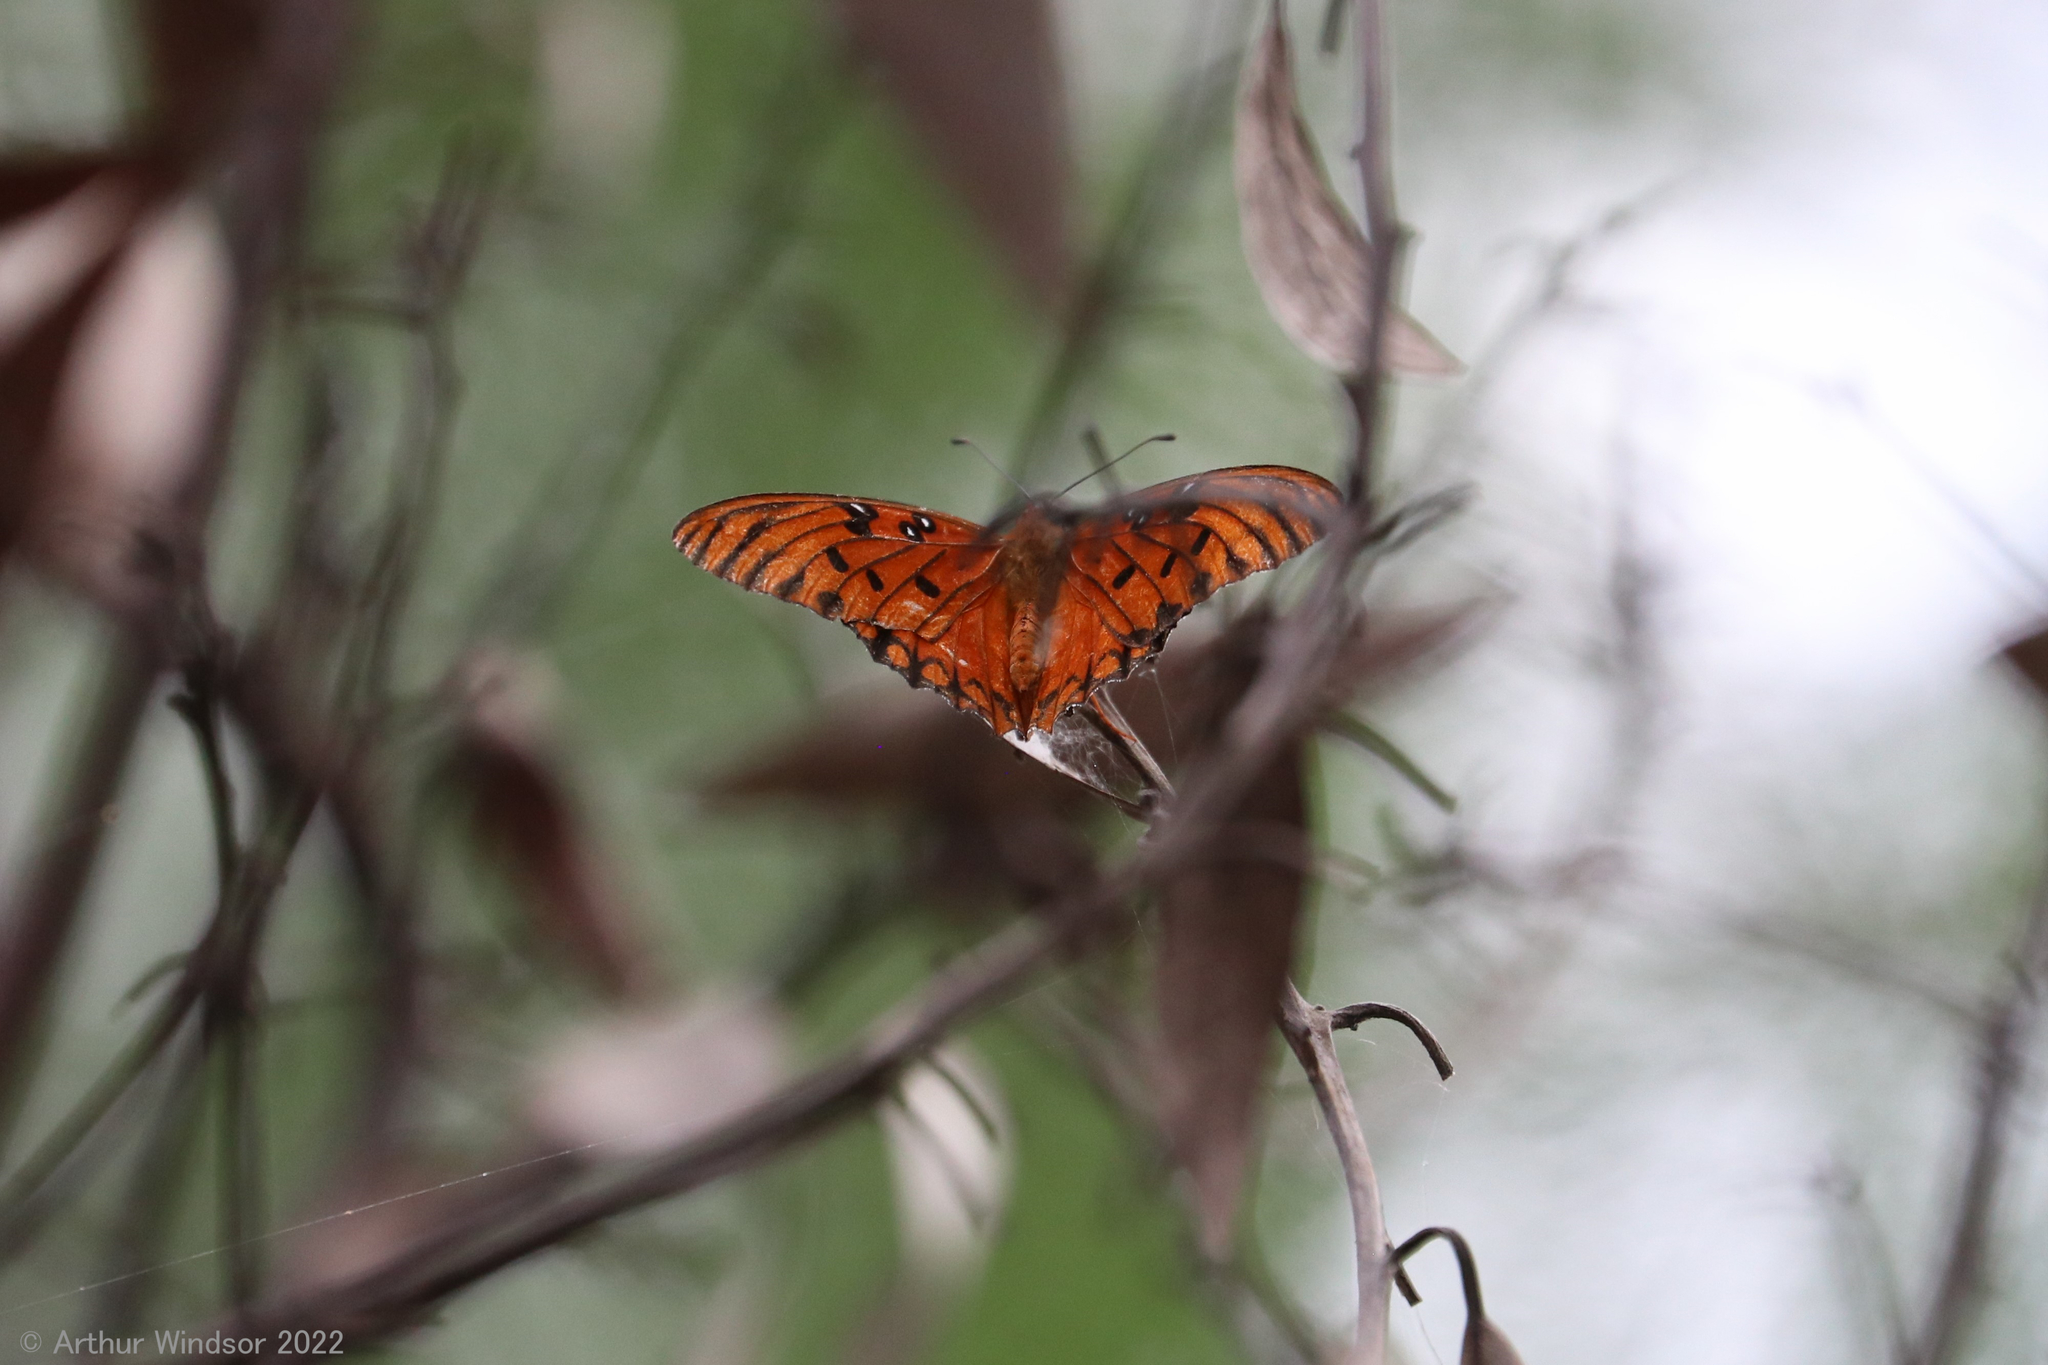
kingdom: Animalia
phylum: Arthropoda
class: Insecta
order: Lepidoptera
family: Nymphalidae
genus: Dione
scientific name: Dione vanillae
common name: Gulf fritillary
